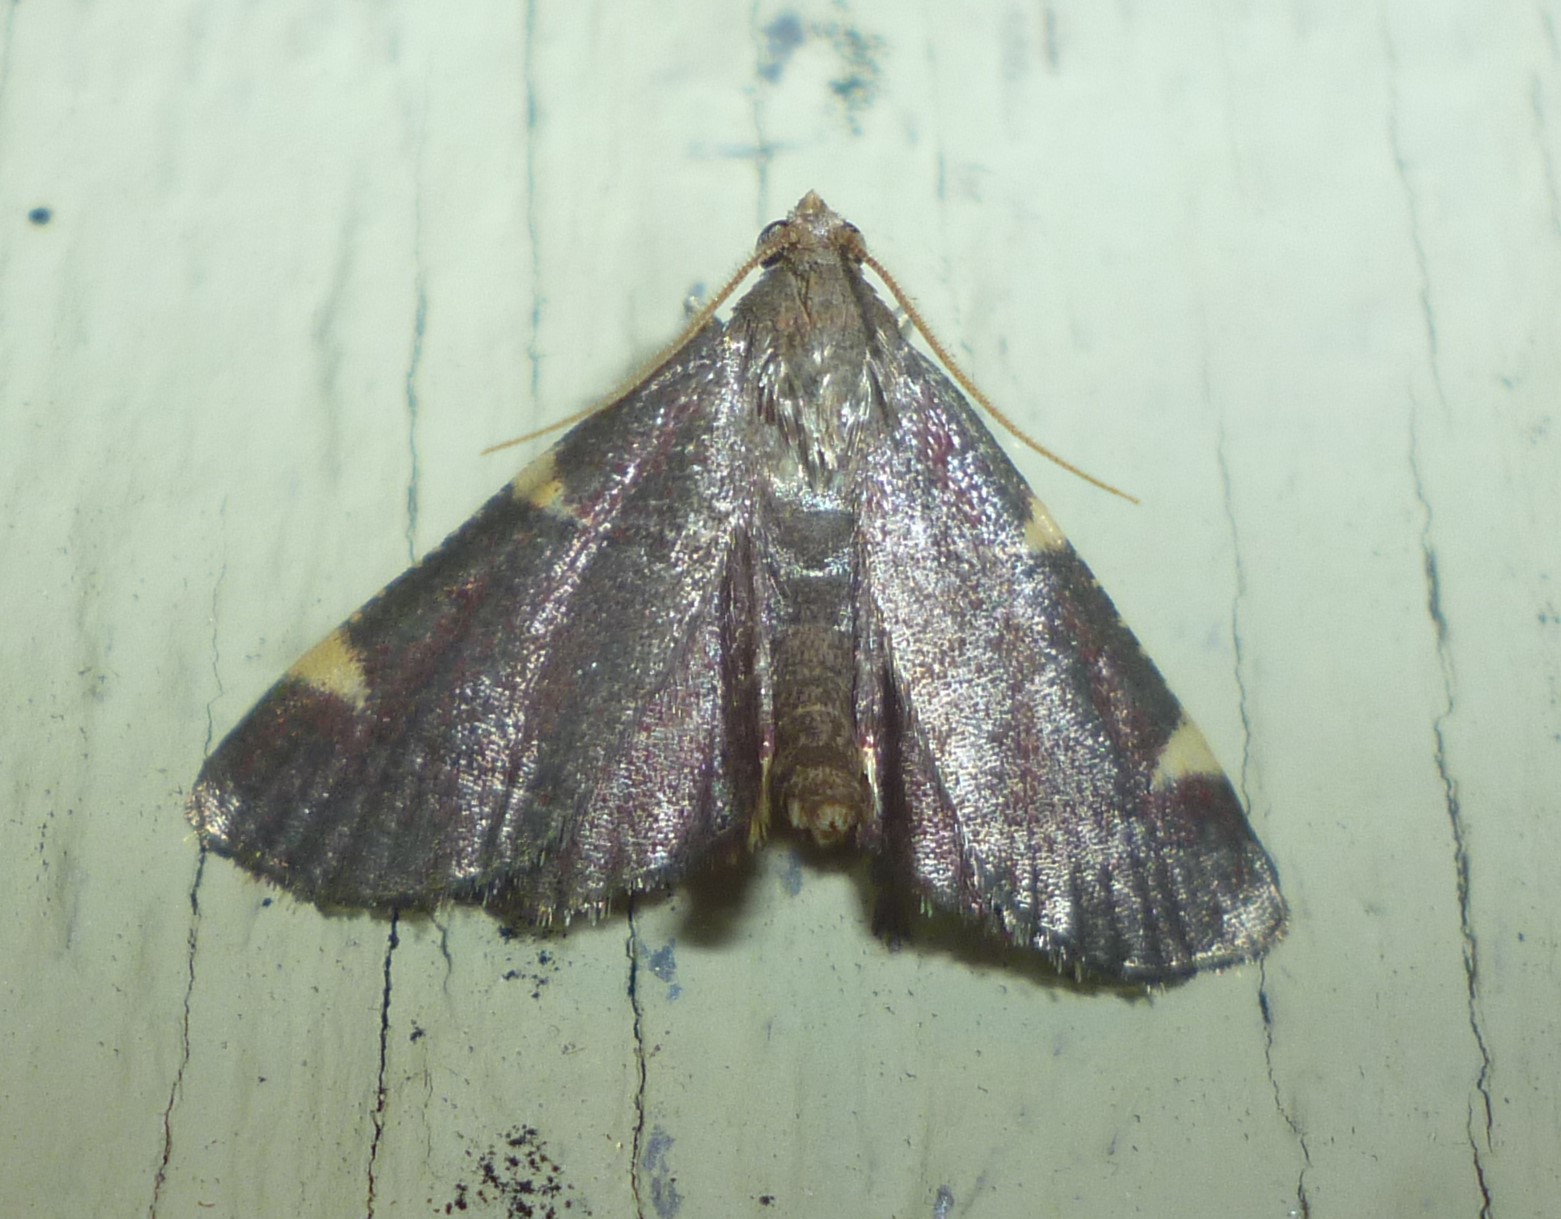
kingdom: Animalia
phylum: Arthropoda
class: Insecta
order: Lepidoptera
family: Pyralidae
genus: Hypsopygia
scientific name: Hypsopygia olinalis
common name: Yellow-fringed dolichomia moth
